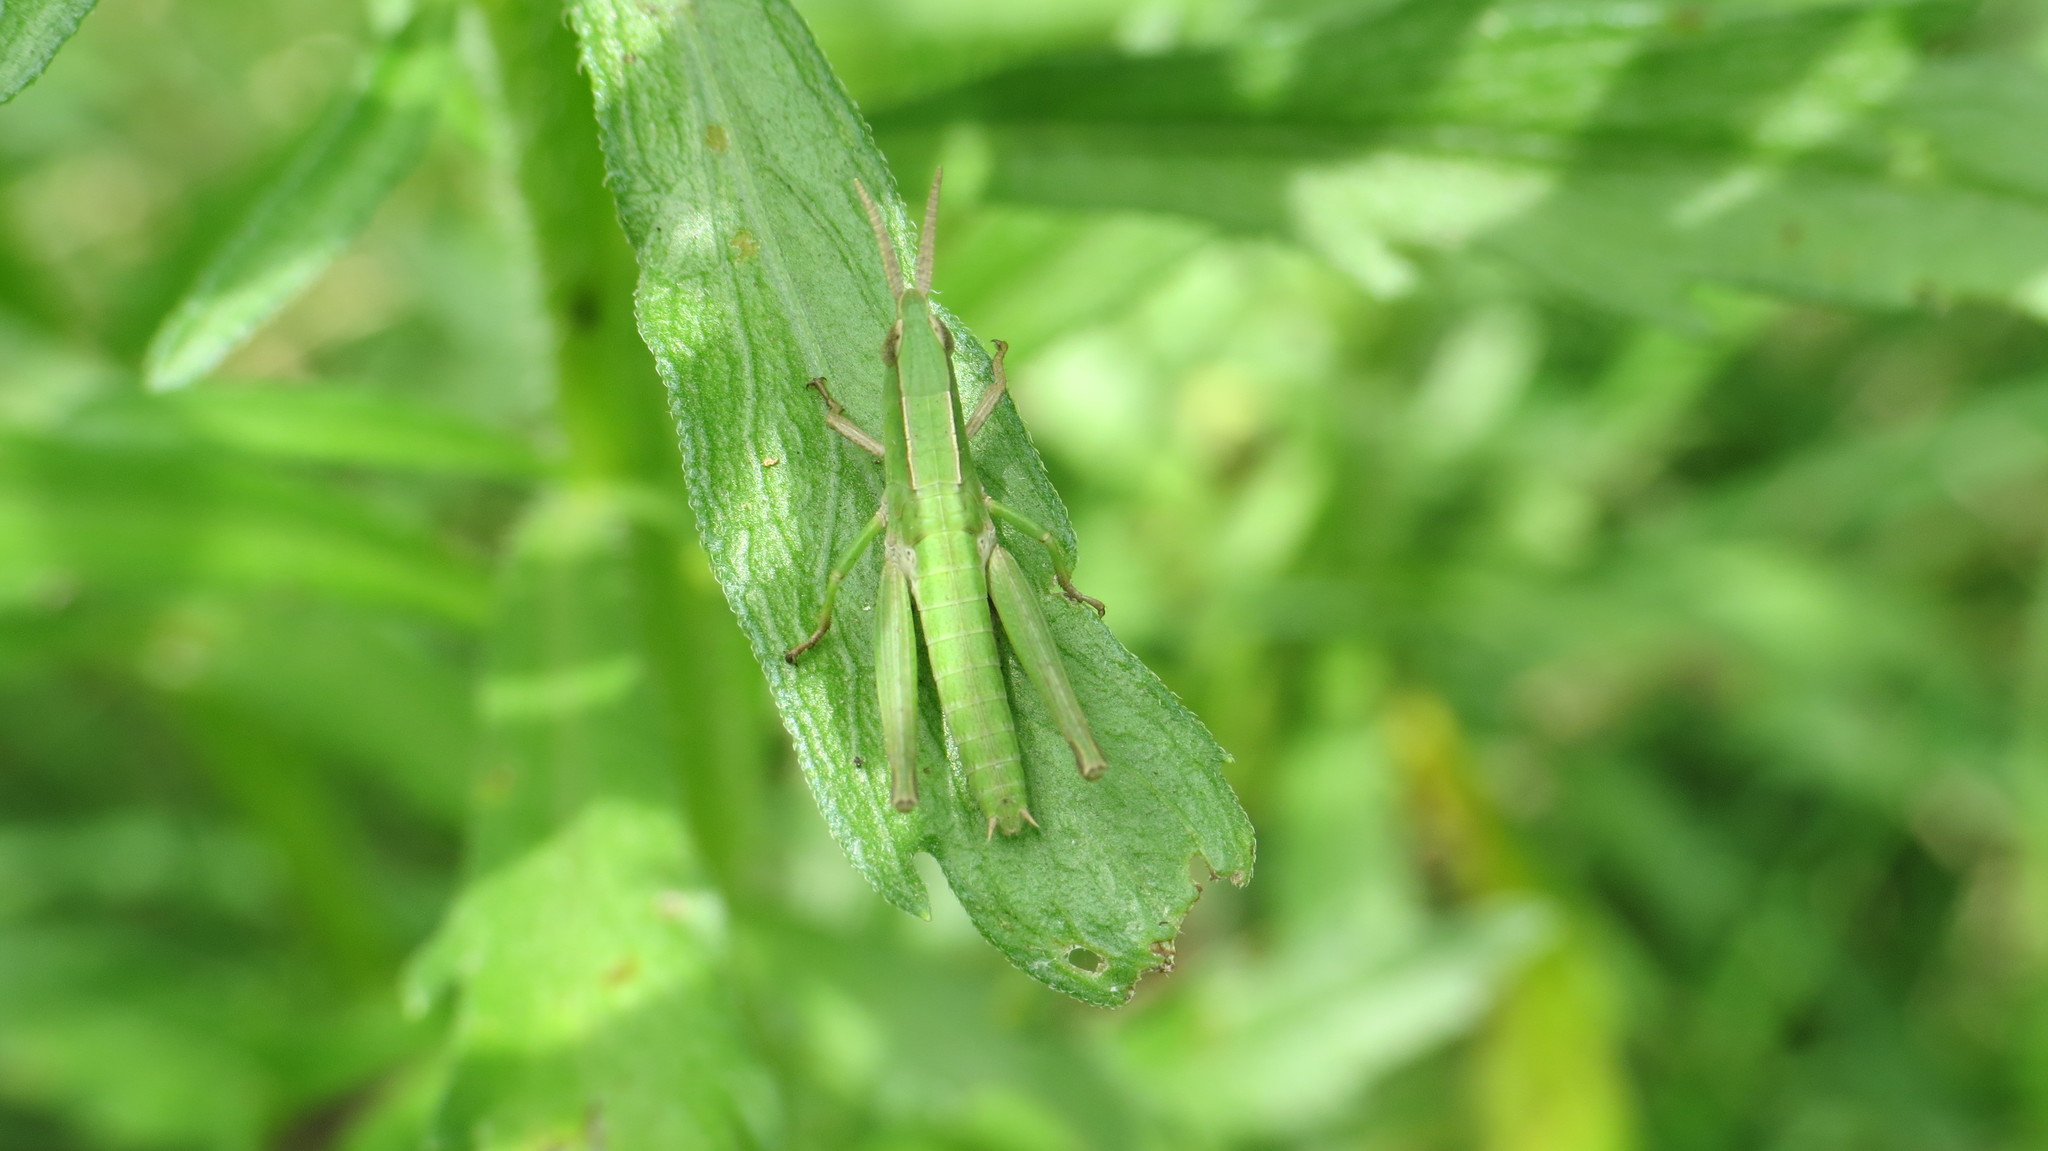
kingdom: Animalia
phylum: Arthropoda
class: Insecta
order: Orthoptera
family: Acrididae
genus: Metaleptea
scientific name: Metaleptea adspersa
